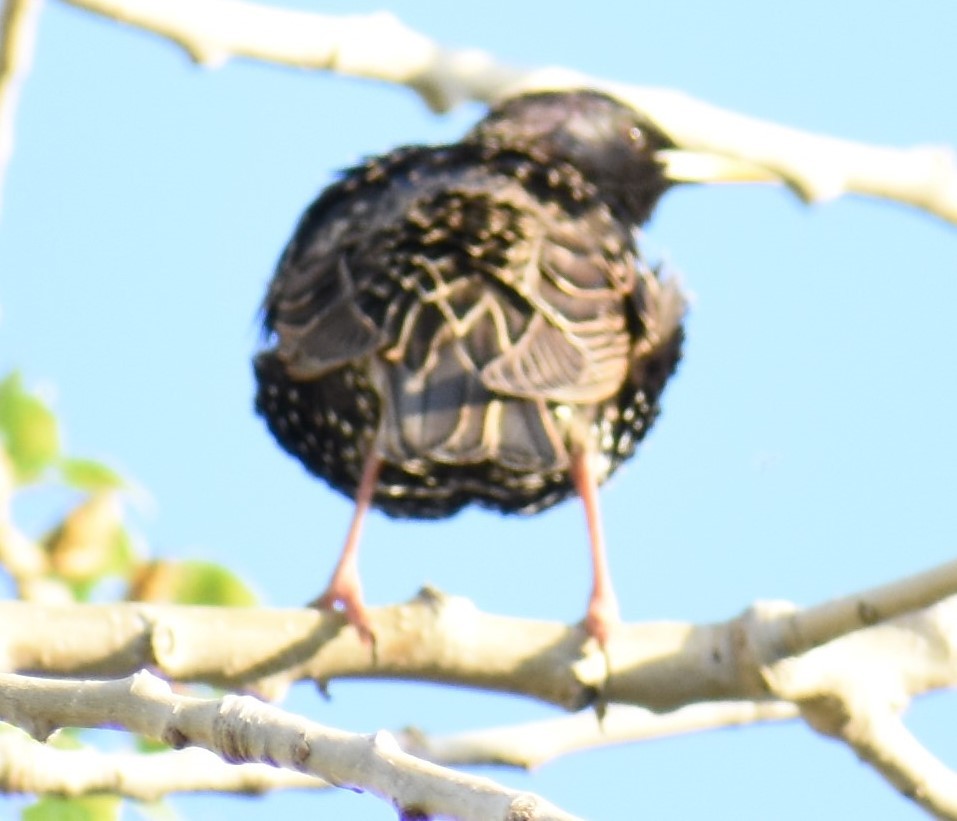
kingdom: Animalia
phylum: Chordata
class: Aves
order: Passeriformes
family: Sturnidae
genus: Sturnus
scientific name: Sturnus vulgaris
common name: Common starling
